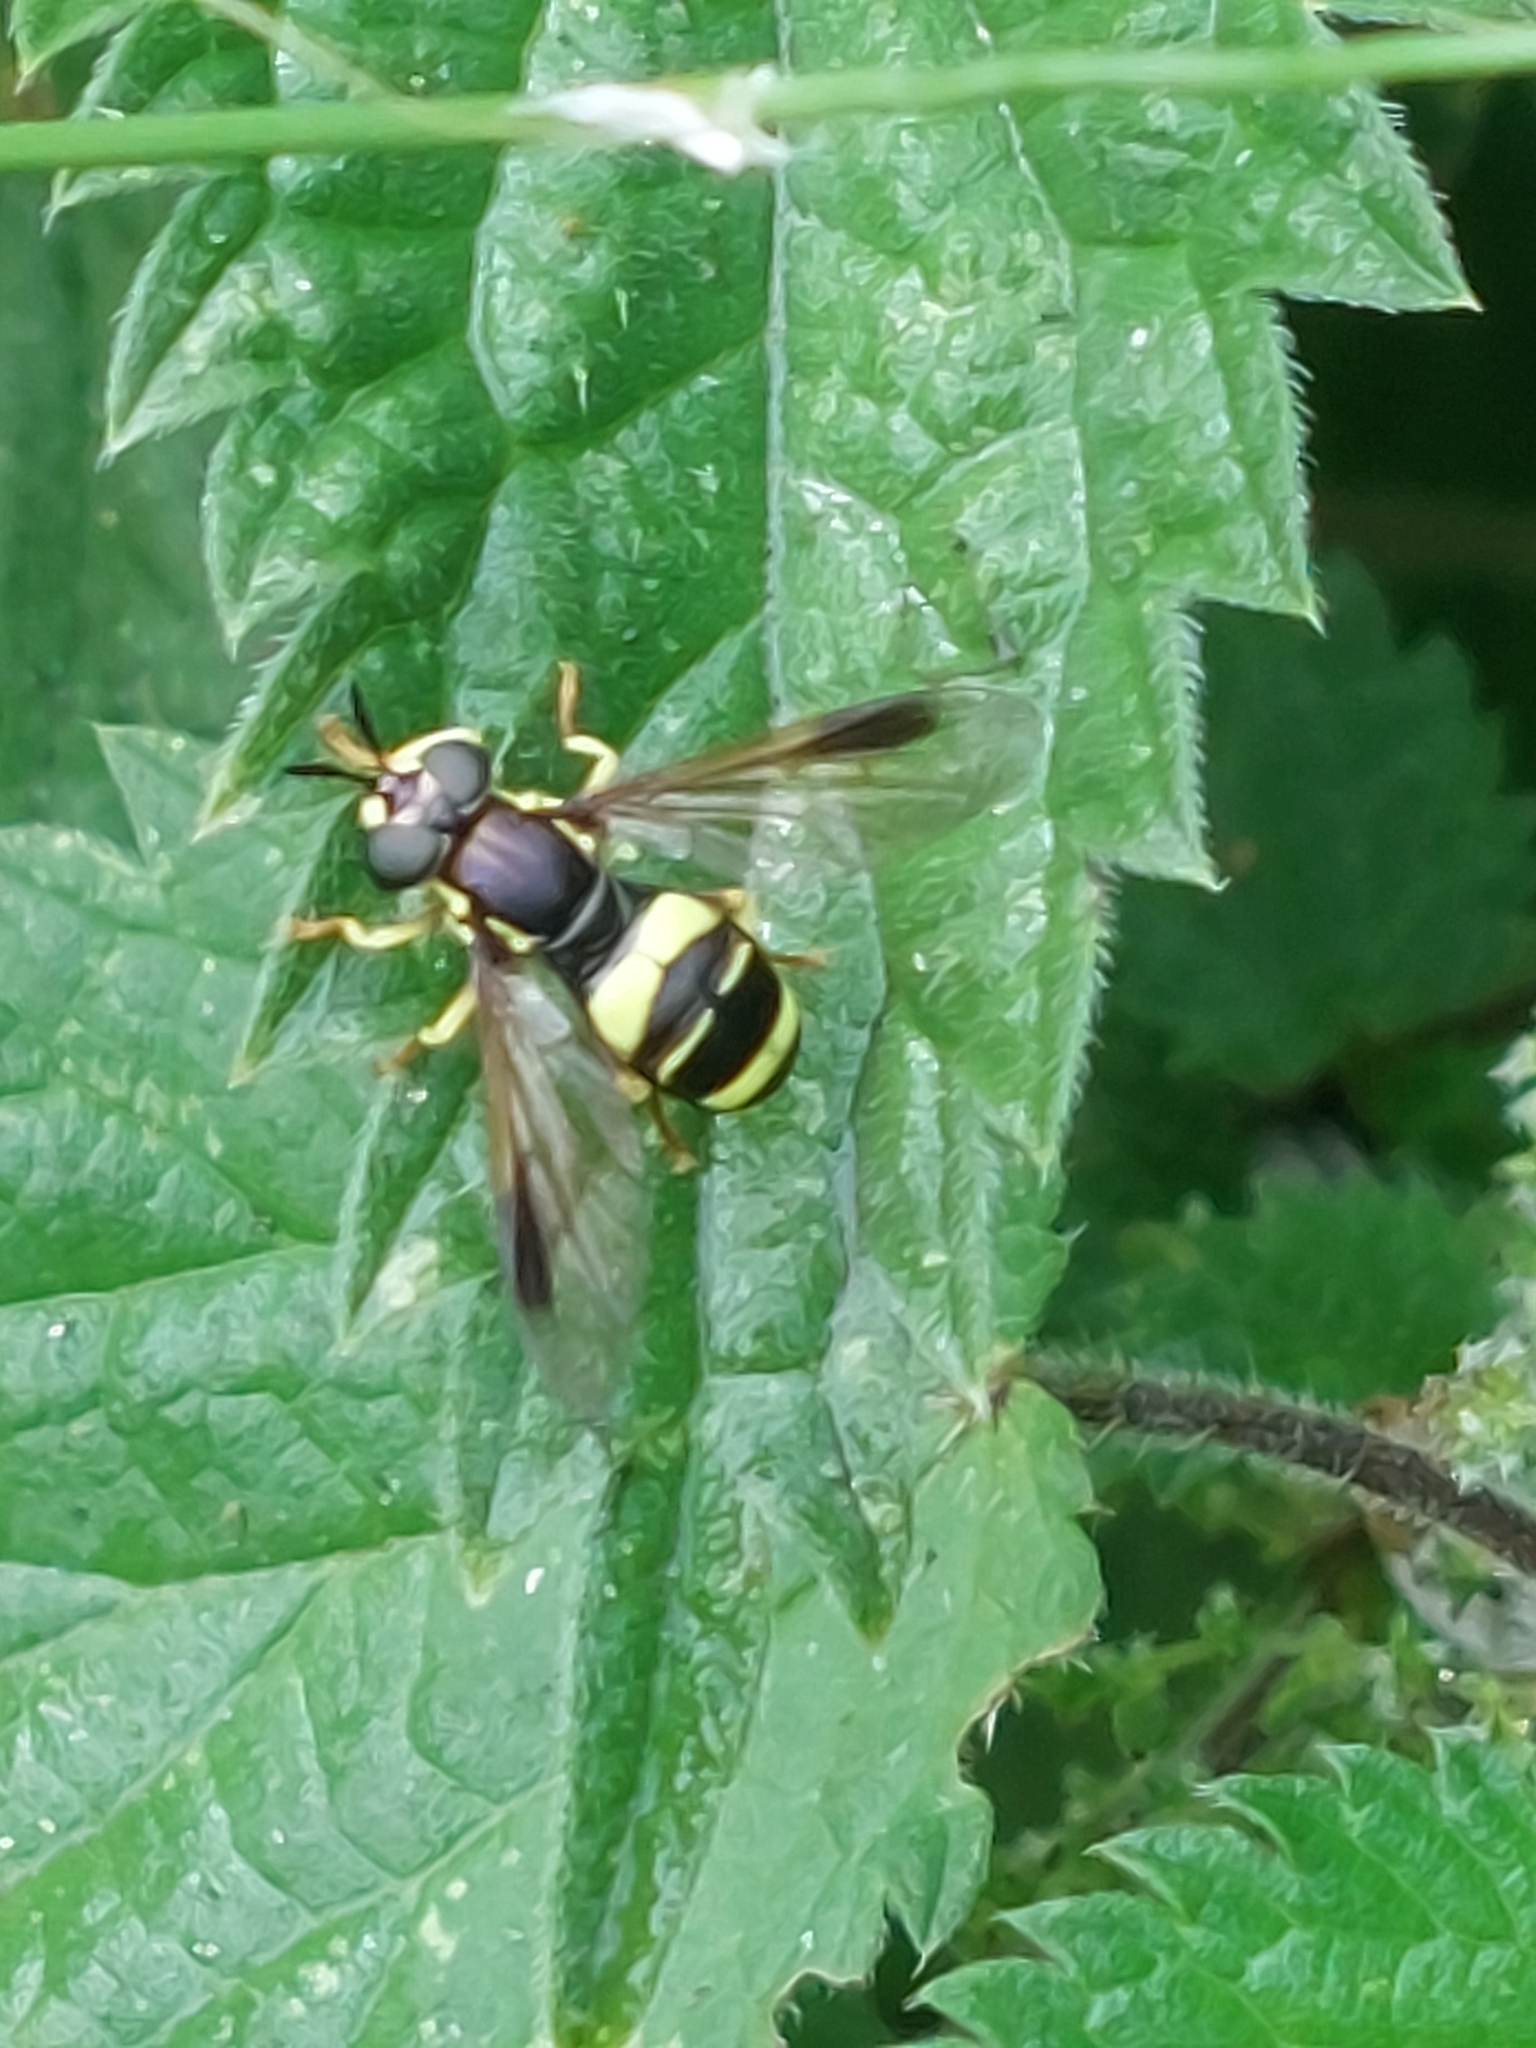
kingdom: Animalia
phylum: Arthropoda
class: Insecta
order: Diptera
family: Syrphidae
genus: Chrysotoxum
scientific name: Chrysotoxum bicincta
